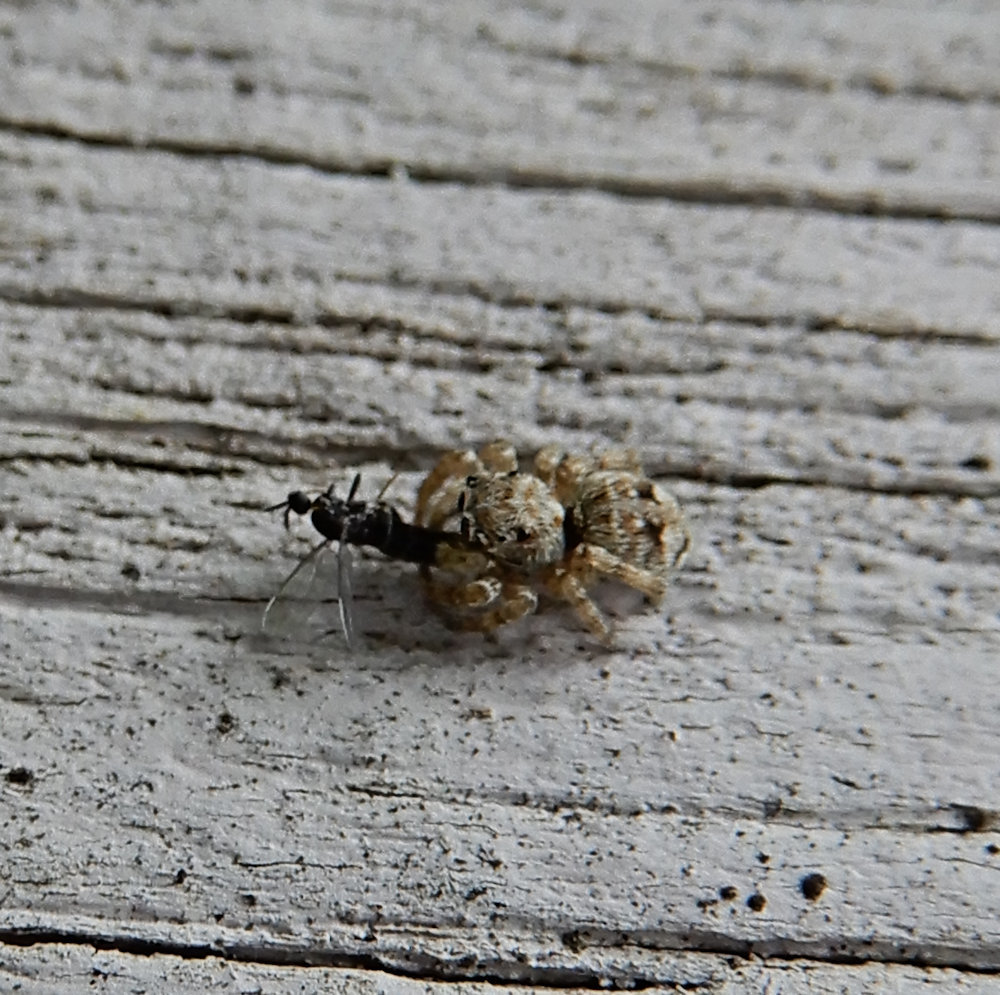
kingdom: Animalia
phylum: Arthropoda
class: Arachnida
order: Araneae
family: Salticidae
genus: Attulus
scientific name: Attulus fasciger
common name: Asiatic wall jumping spider
